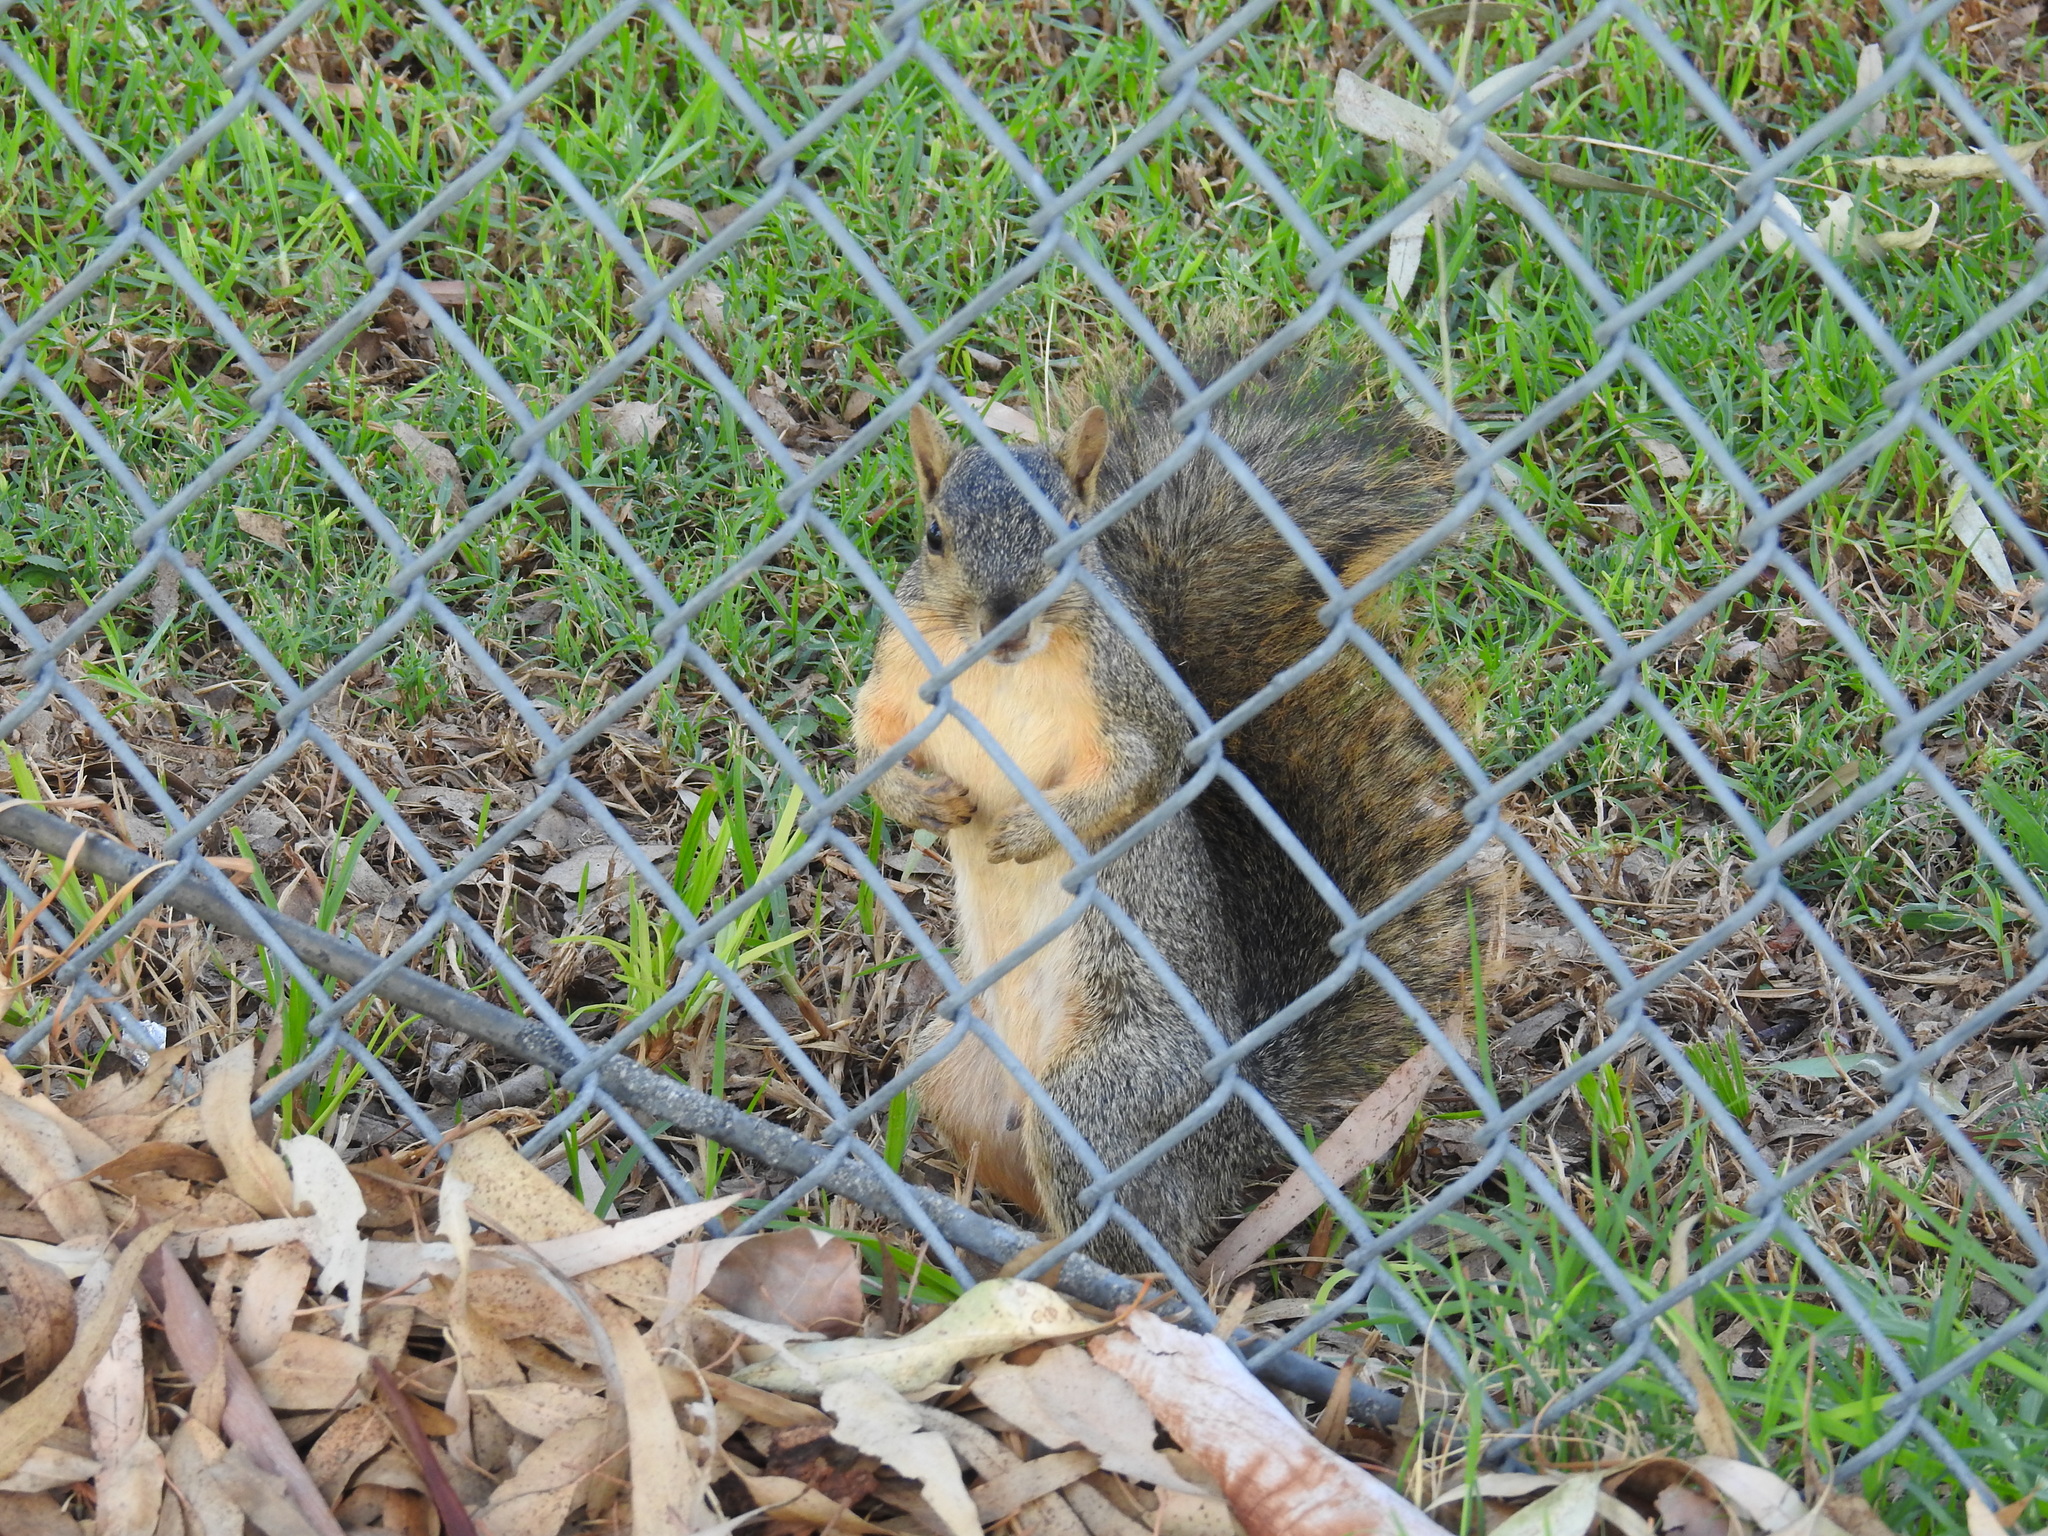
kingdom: Animalia
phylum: Chordata
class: Mammalia
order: Rodentia
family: Sciuridae
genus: Sciurus
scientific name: Sciurus niger
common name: Fox squirrel
